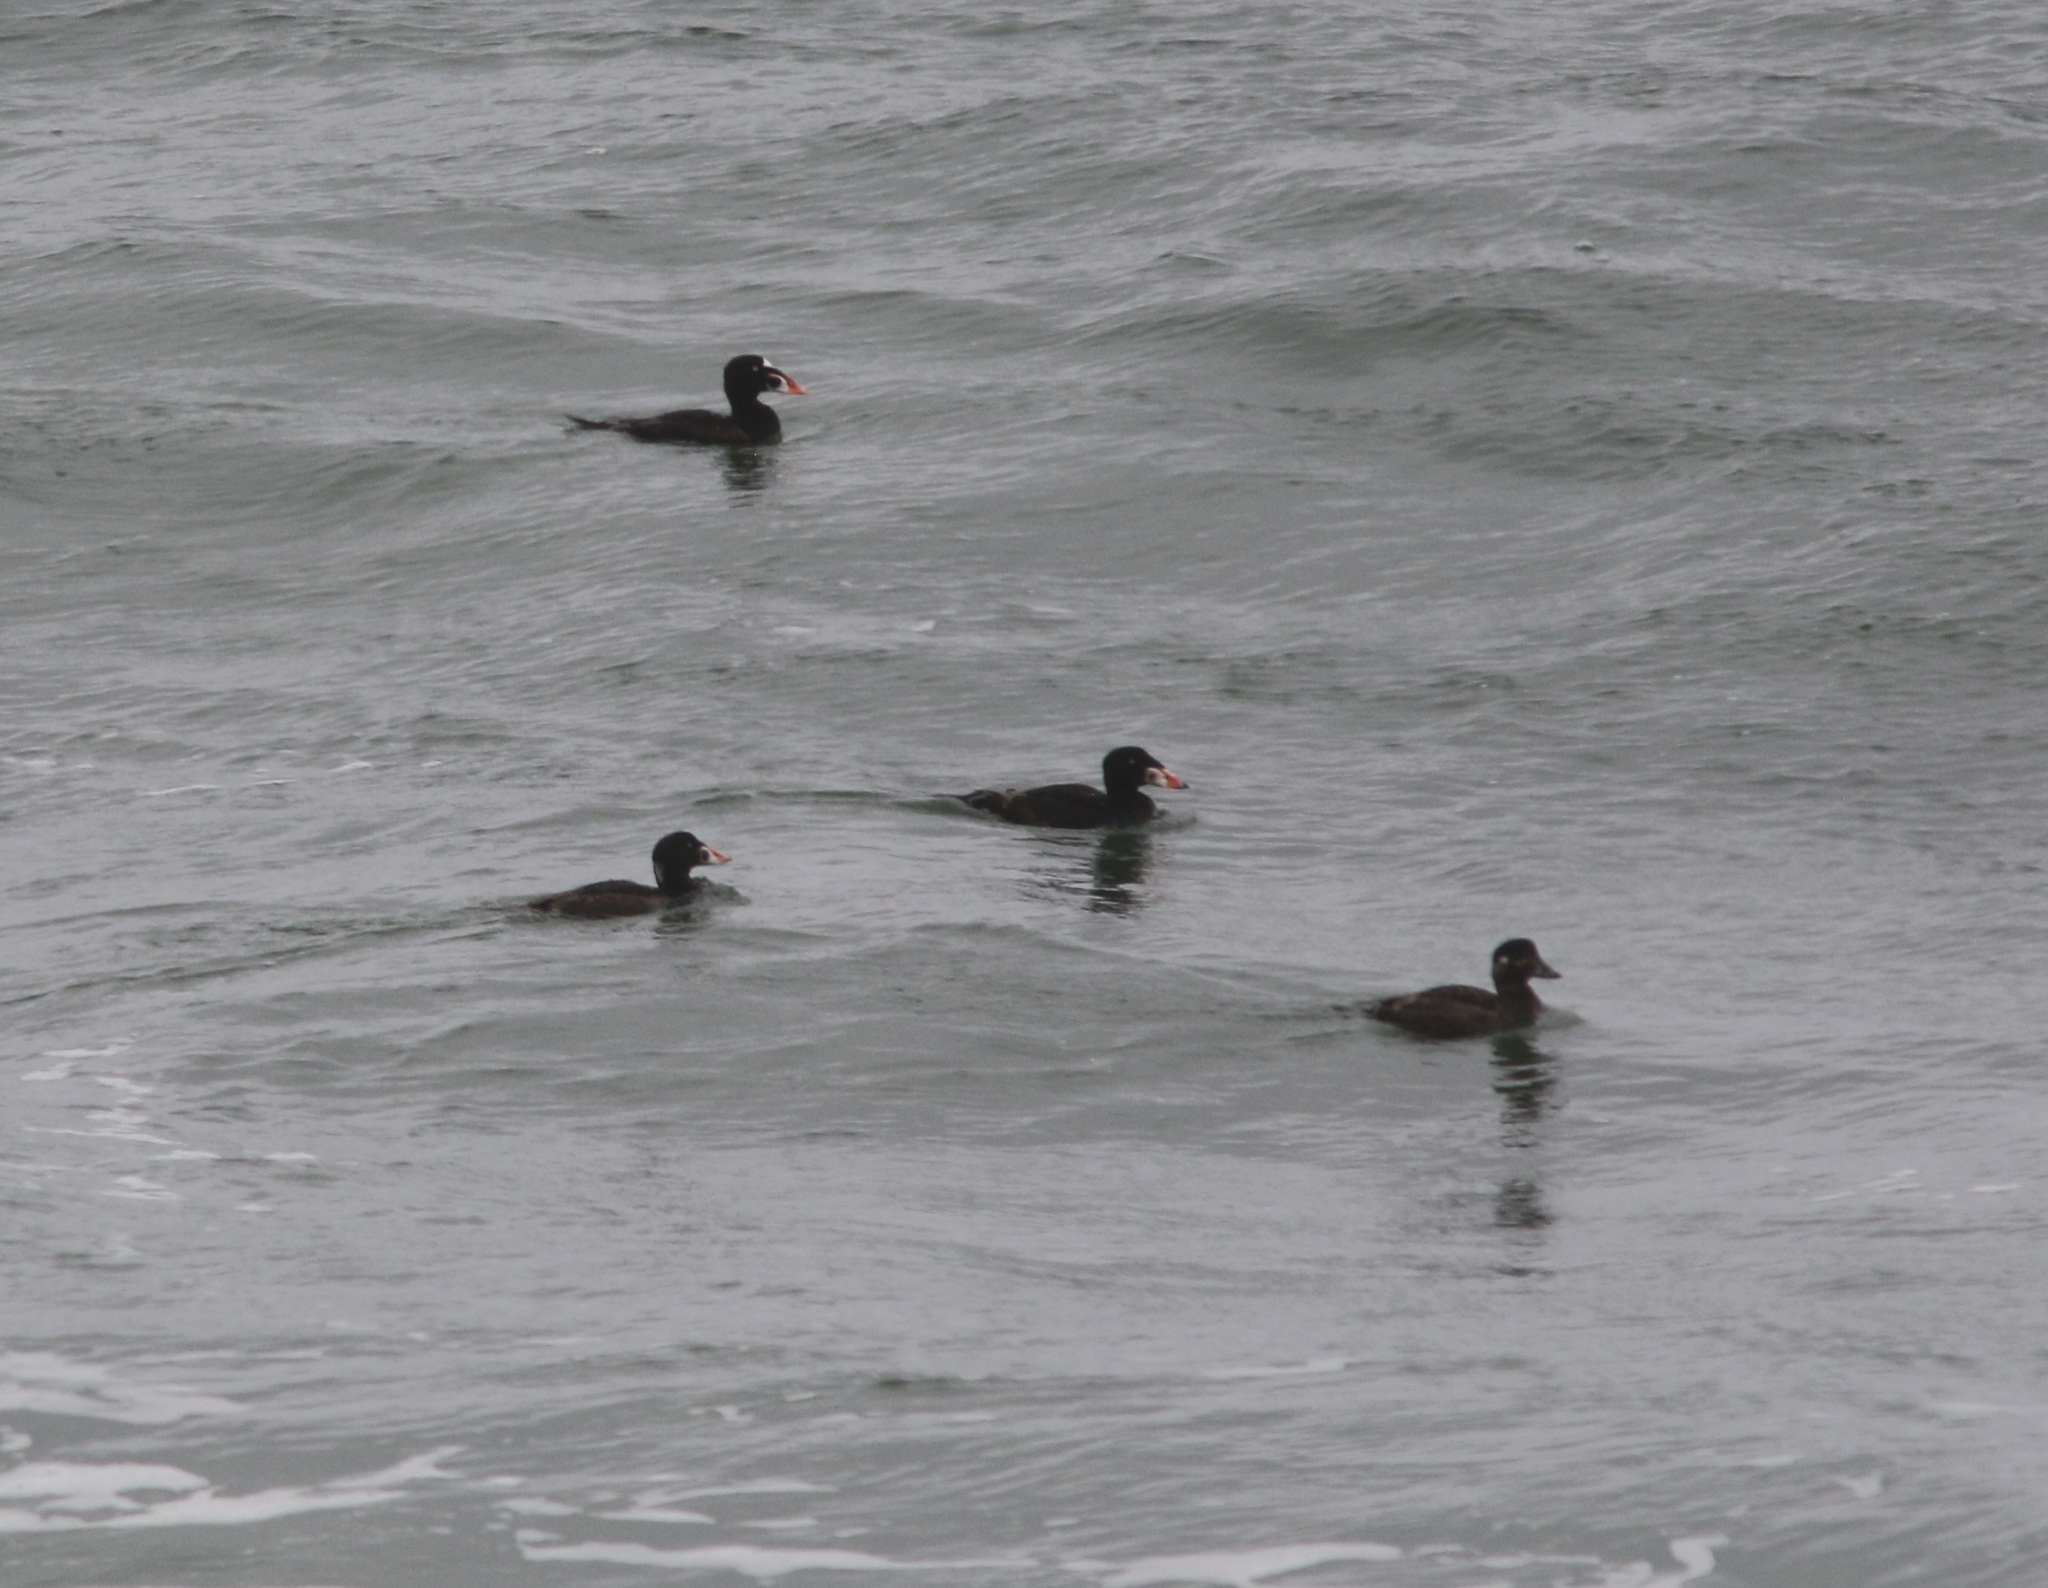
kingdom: Animalia
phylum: Chordata
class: Aves
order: Anseriformes
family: Anatidae
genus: Melanitta
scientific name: Melanitta perspicillata
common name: Surf scoter
